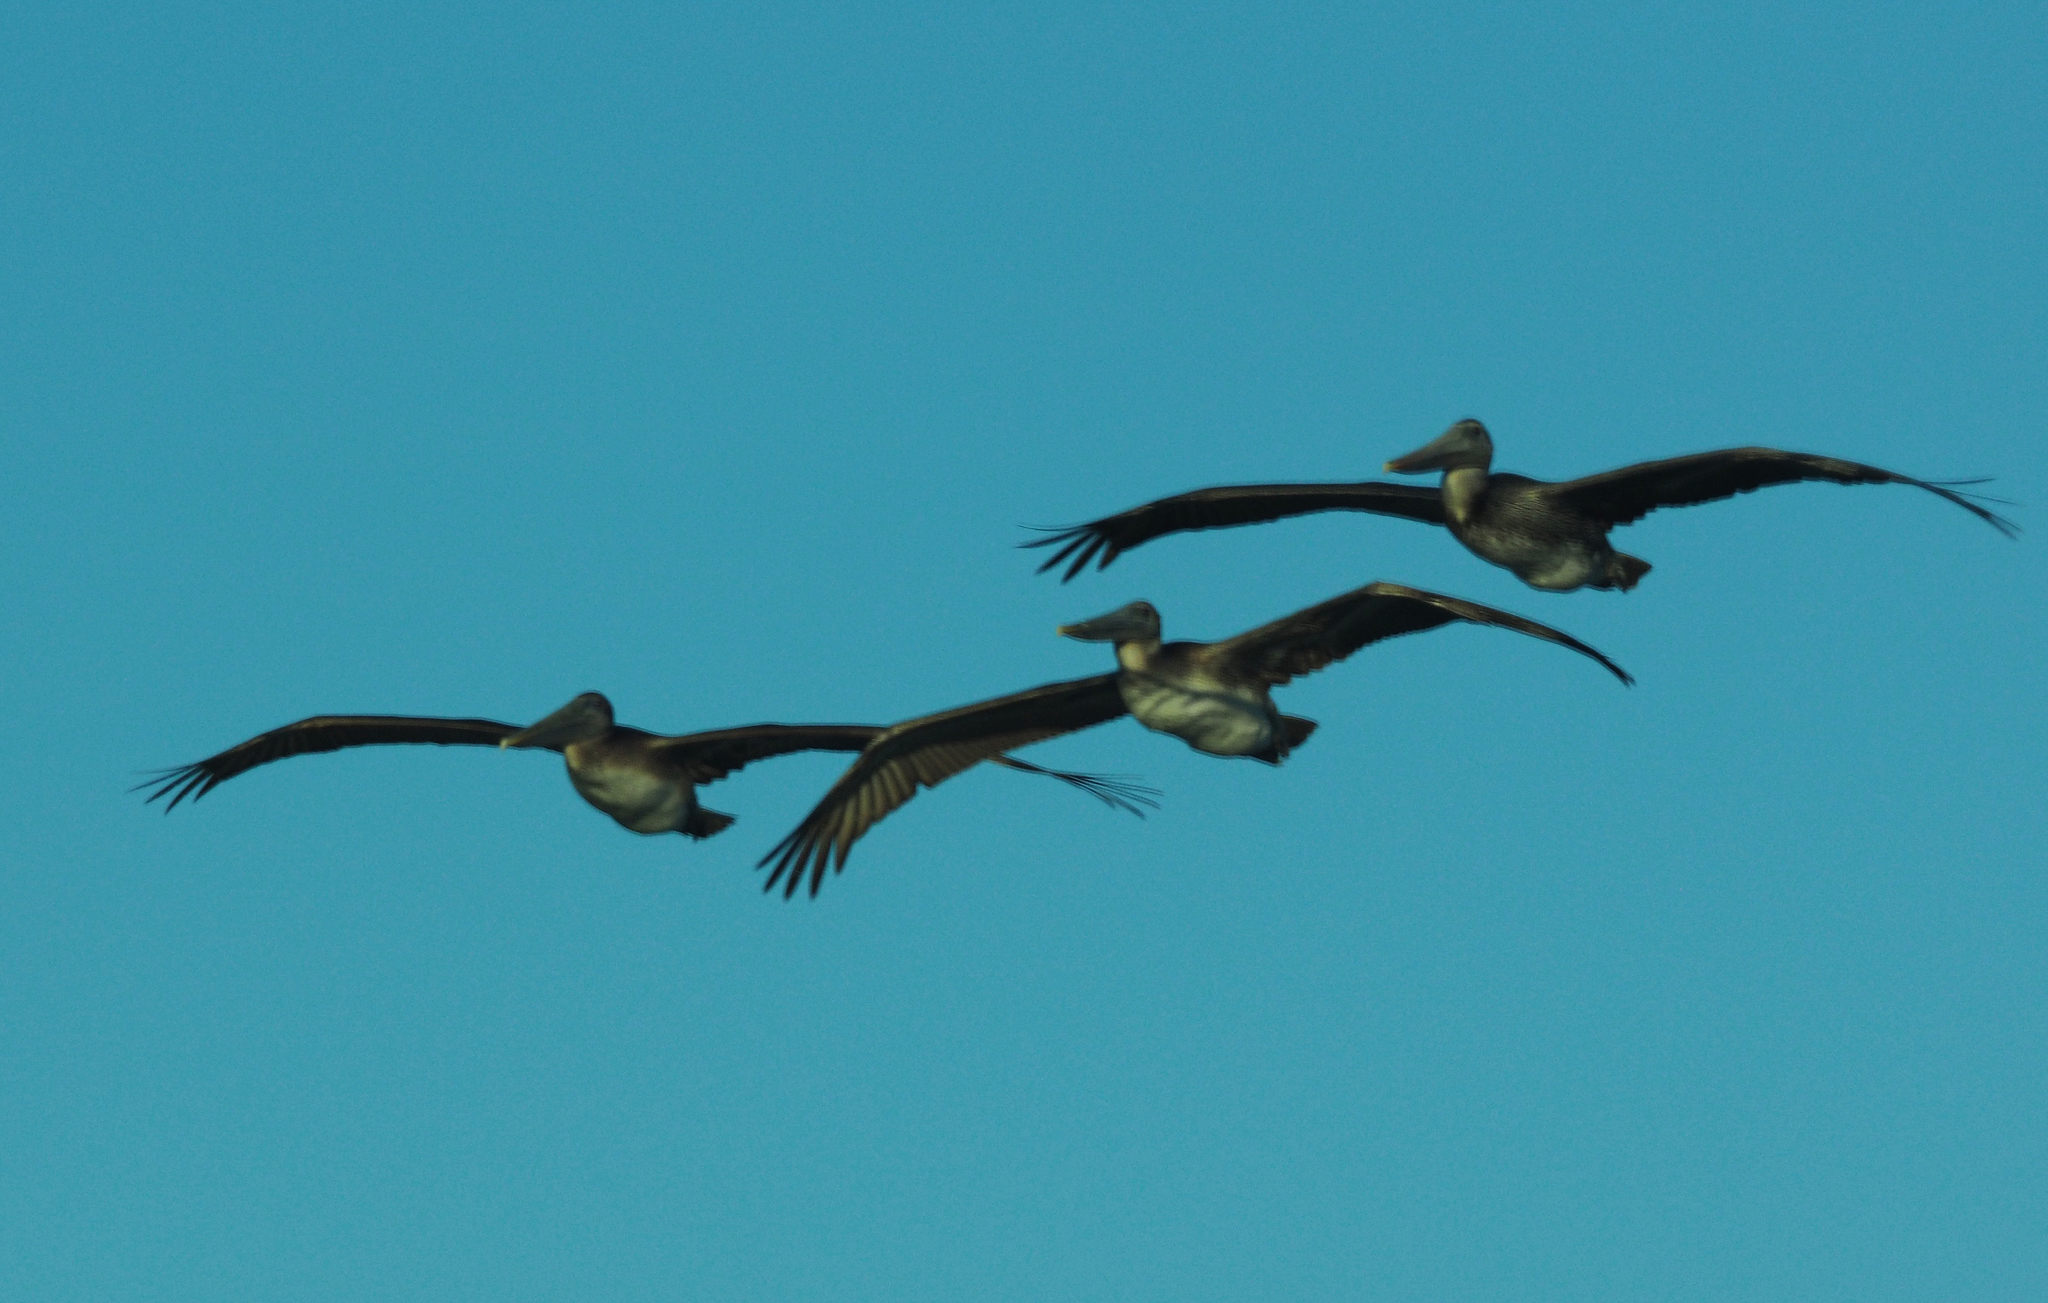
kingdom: Animalia
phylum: Chordata
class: Aves
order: Pelecaniformes
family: Pelecanidae
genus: Pelecanus
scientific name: Pelecanus occidentalis
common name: Brown pelican
